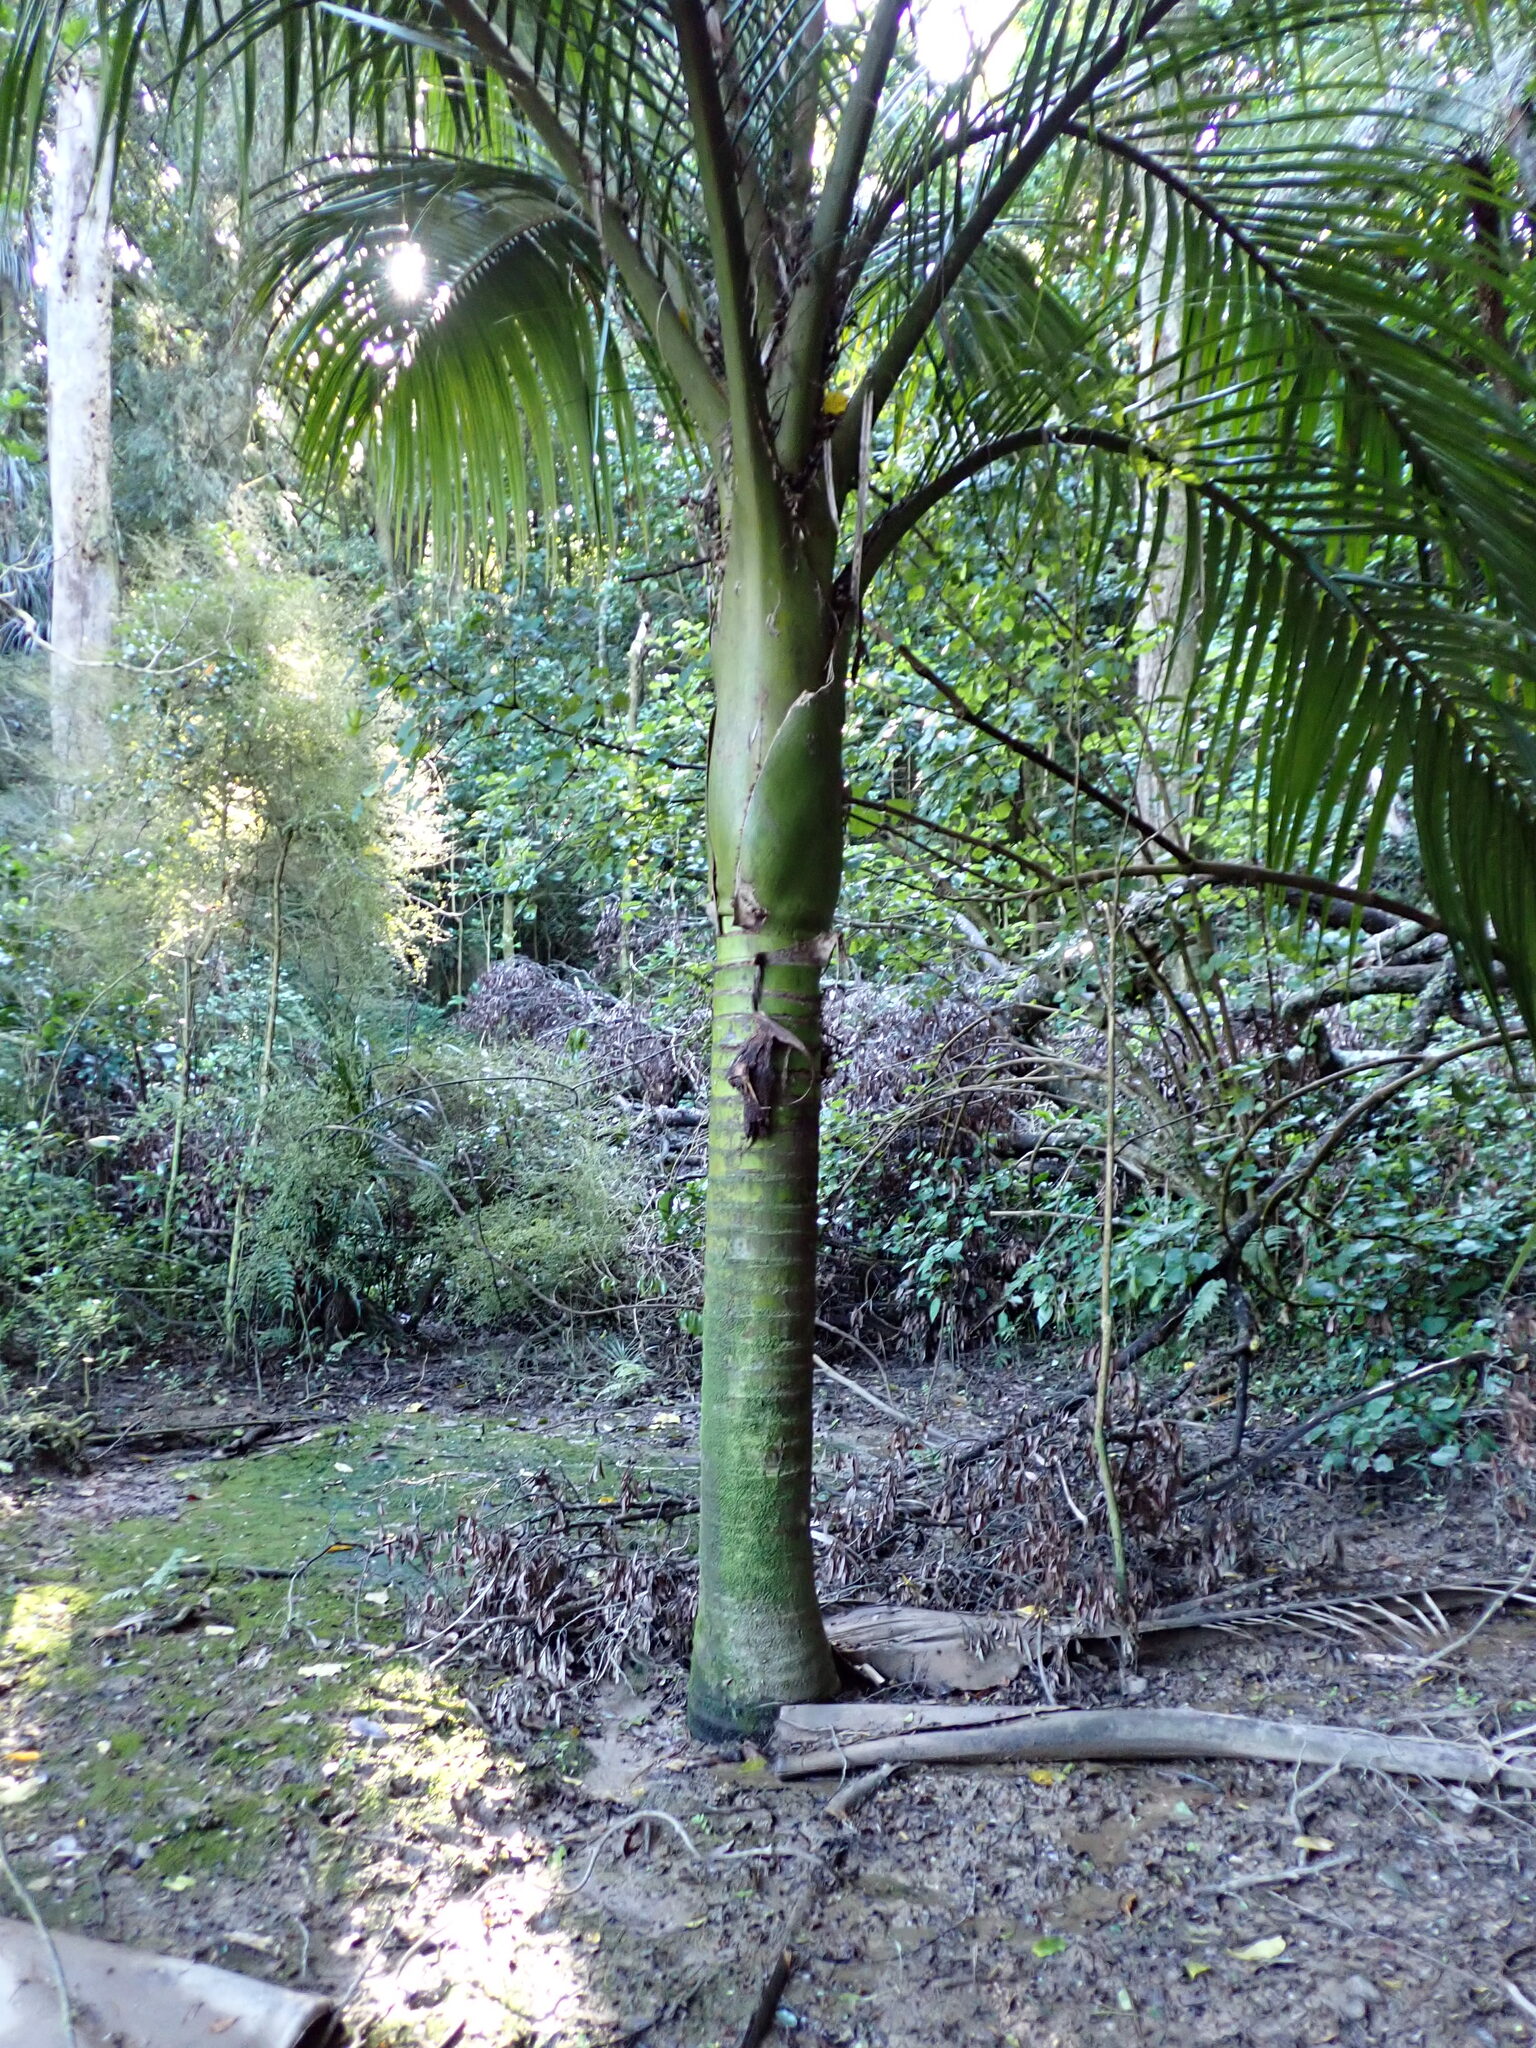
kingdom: Plantae
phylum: Tracheophyta
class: Liliopsida
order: Arecales
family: Arecaceae
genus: Rhopalostylis
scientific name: Rhopalostylis sapida
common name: Feather-duster palm
